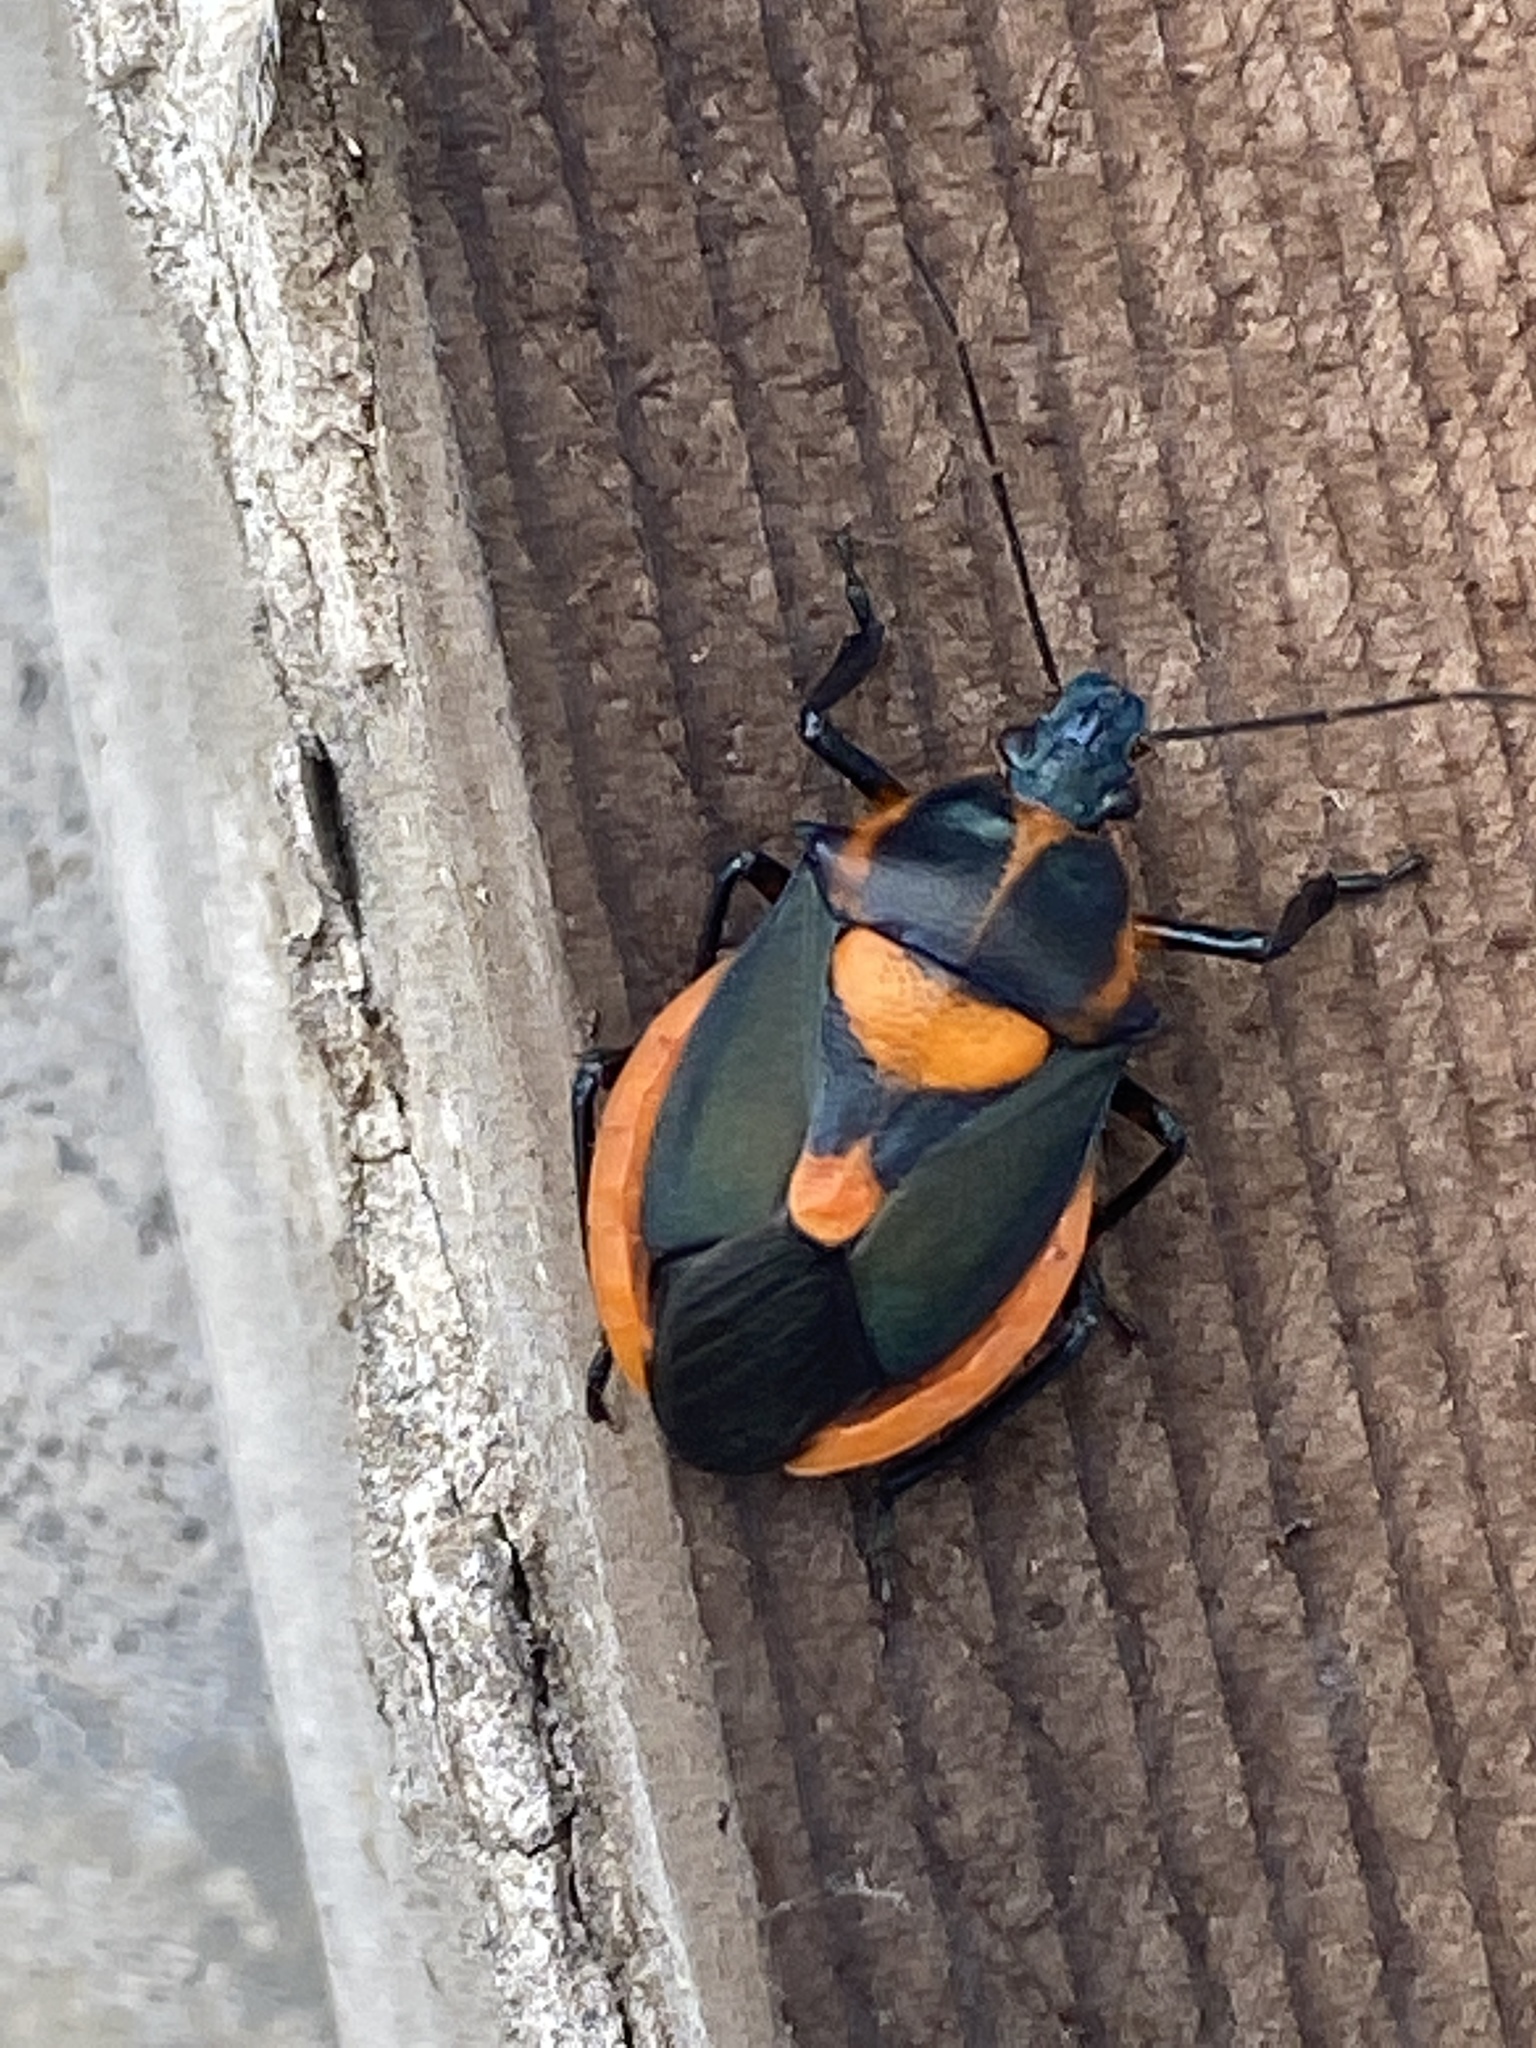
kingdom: Animalia
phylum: Arthropoda
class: Insecta
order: Hemiptera
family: Pentatomidae
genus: Euthyrhynchus
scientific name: Euthyrhynchus floridanus
